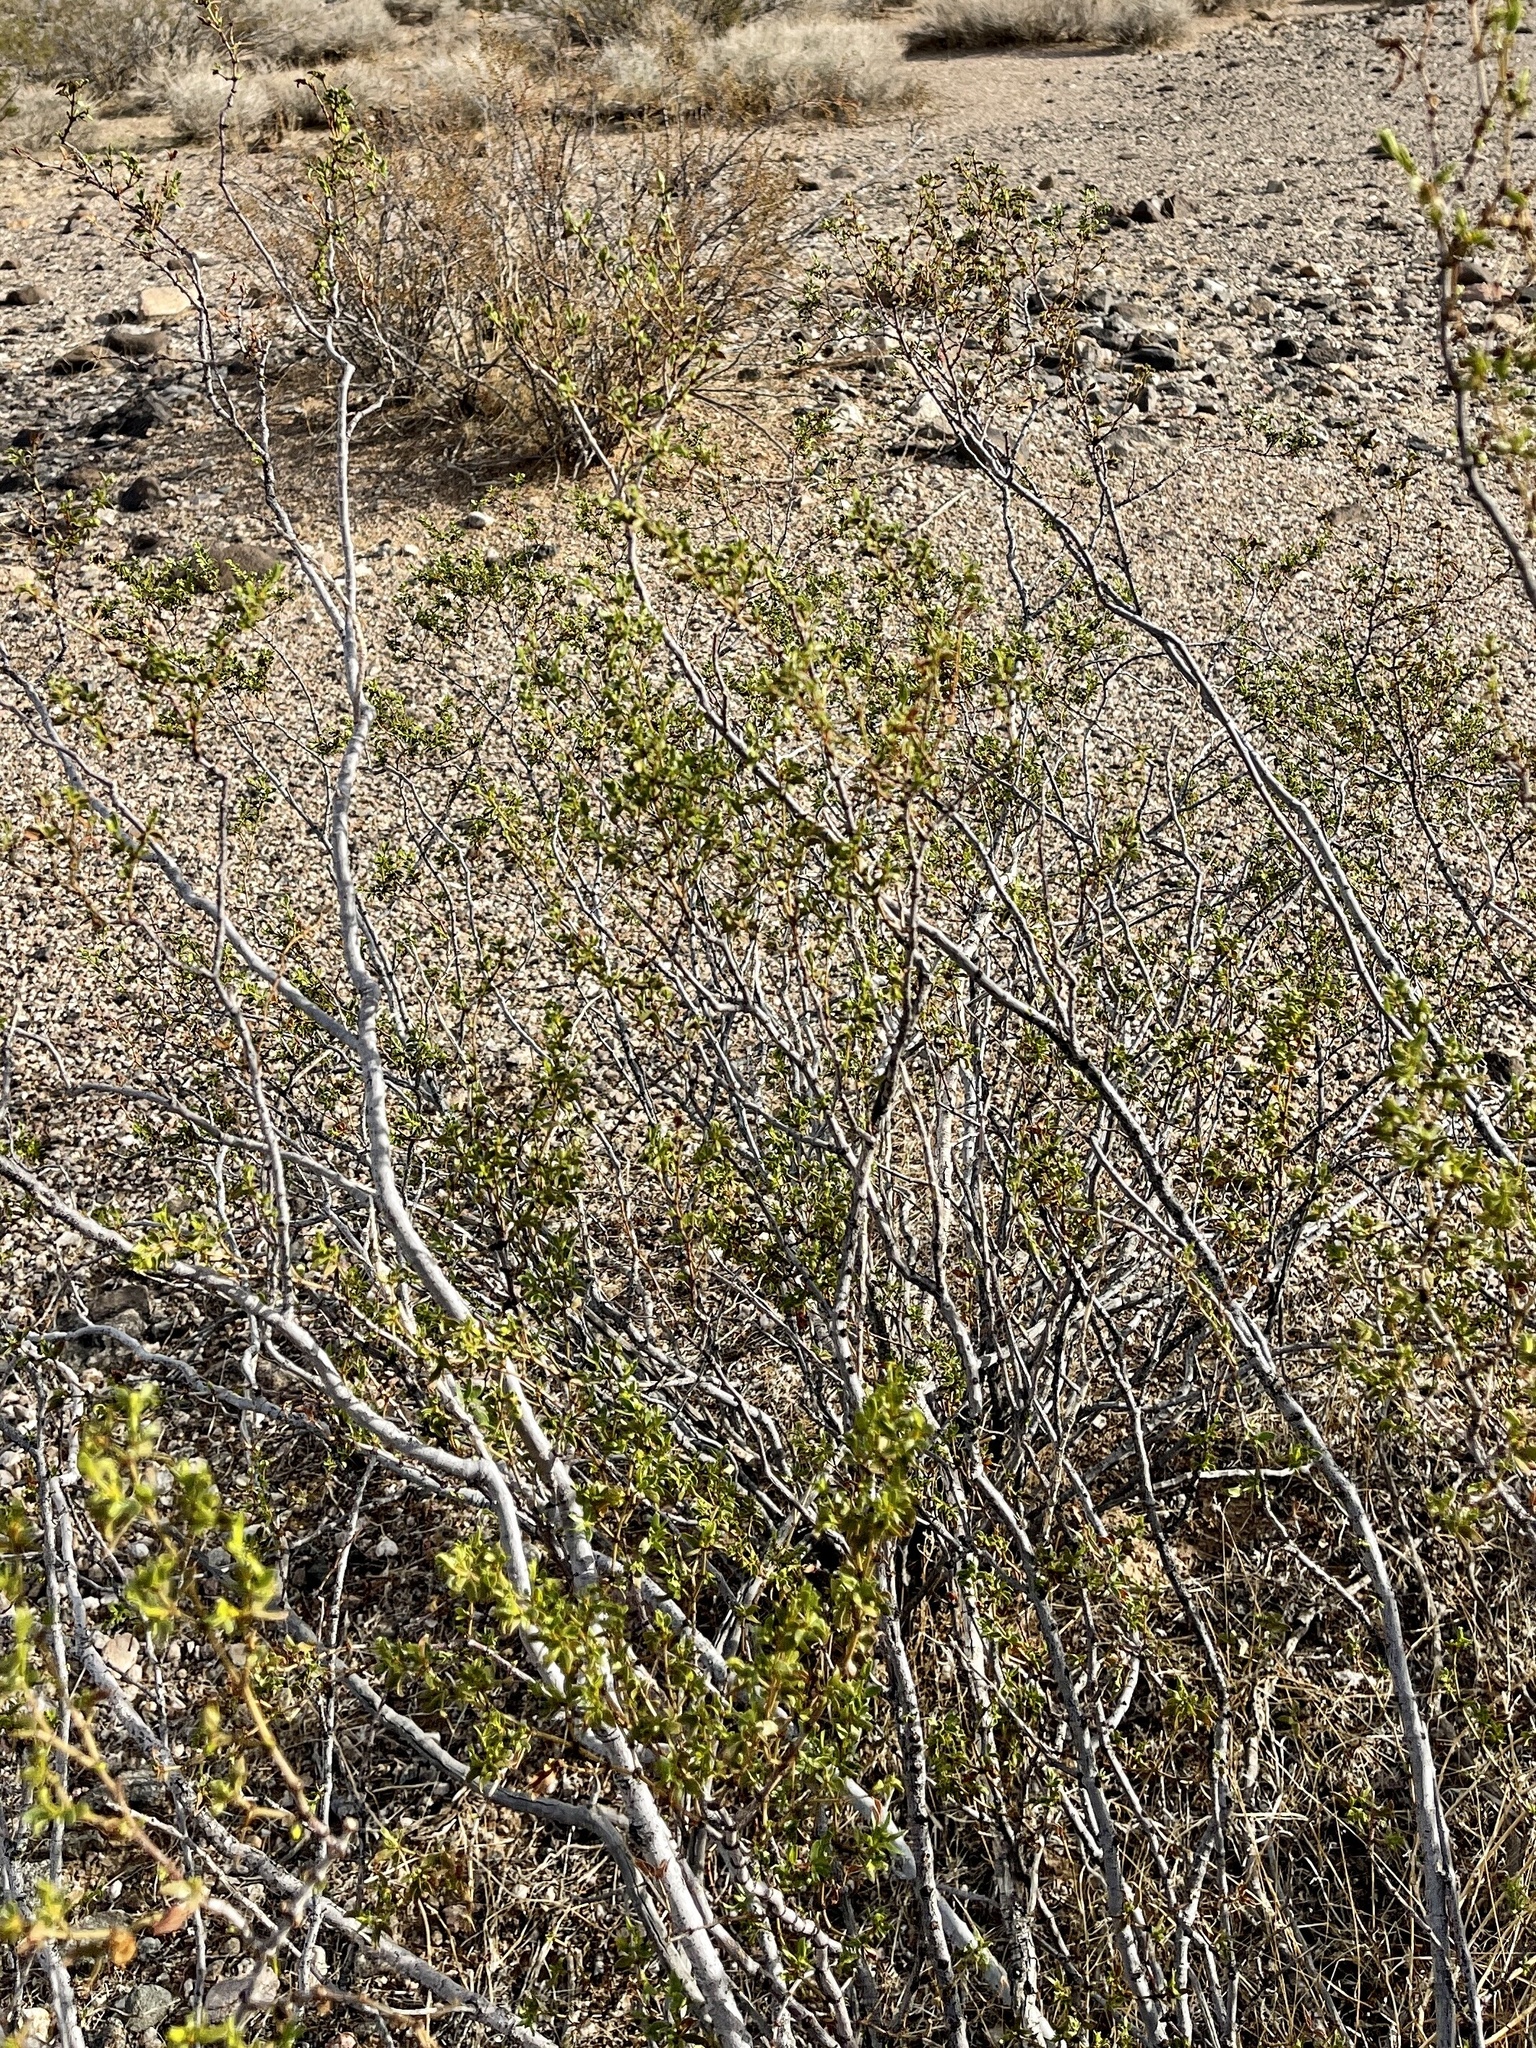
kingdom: Plantae
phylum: Tracheophyta
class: Magnoliopsida
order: Zygophyllales
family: Zygophyllaceae
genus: Larrea
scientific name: Larrea tridentata
